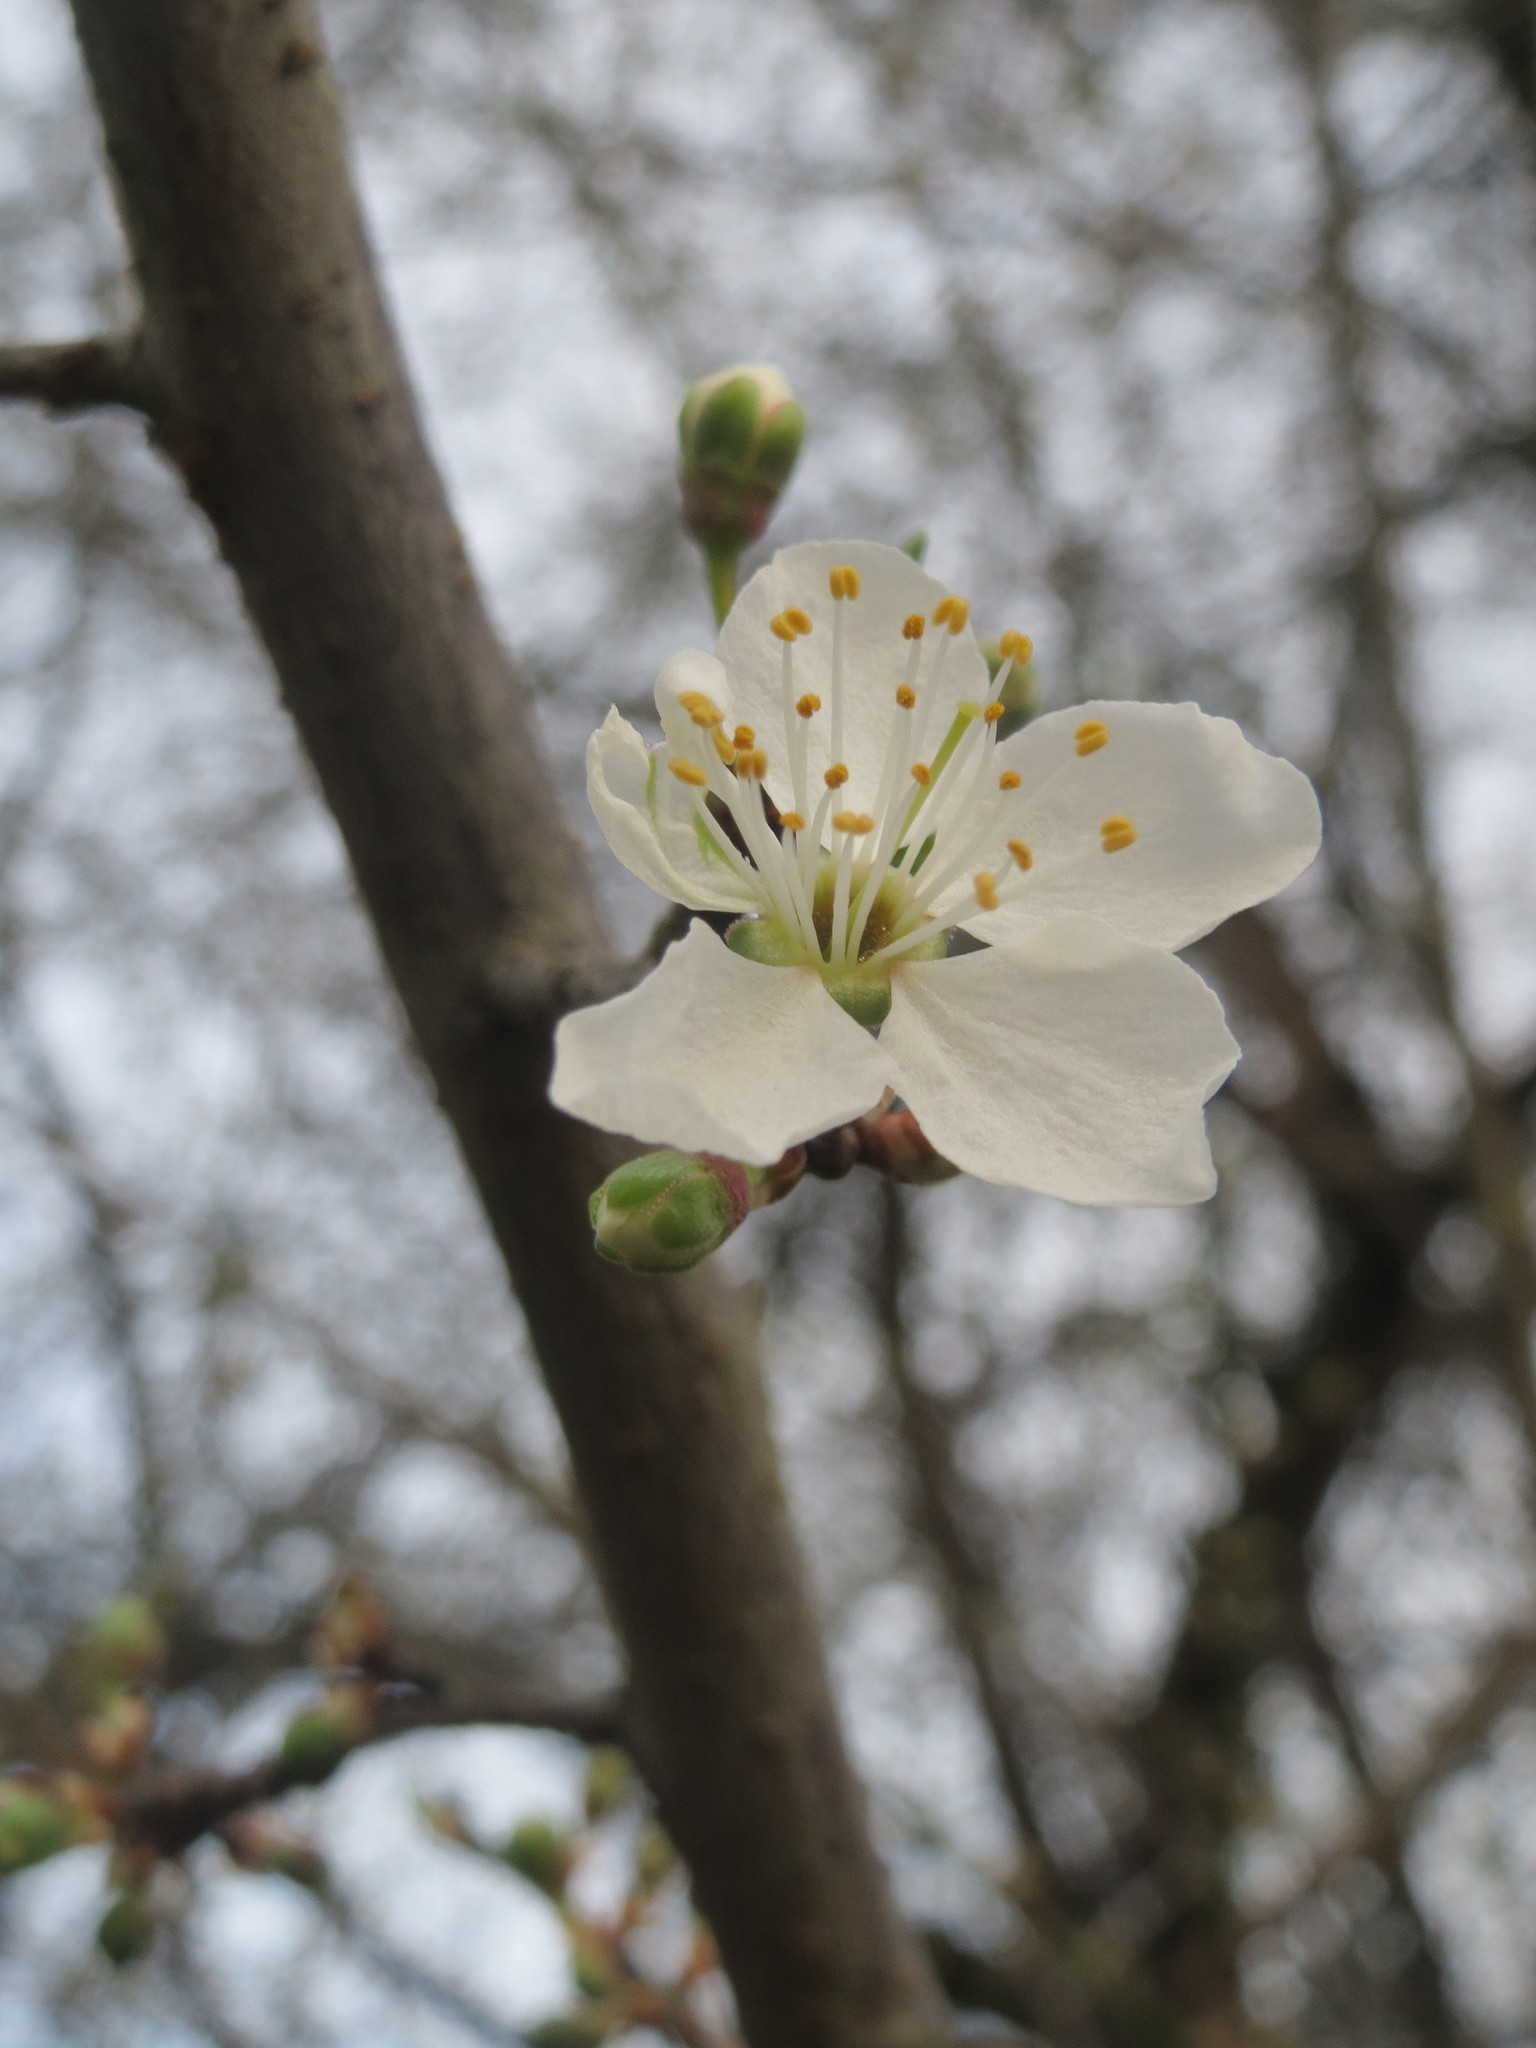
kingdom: Plantae
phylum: Tracheophyta
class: Magnoliopsida
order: Rosales
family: Rosaceae
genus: Prunus
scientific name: Prunus cerasifera
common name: Cherry plum
